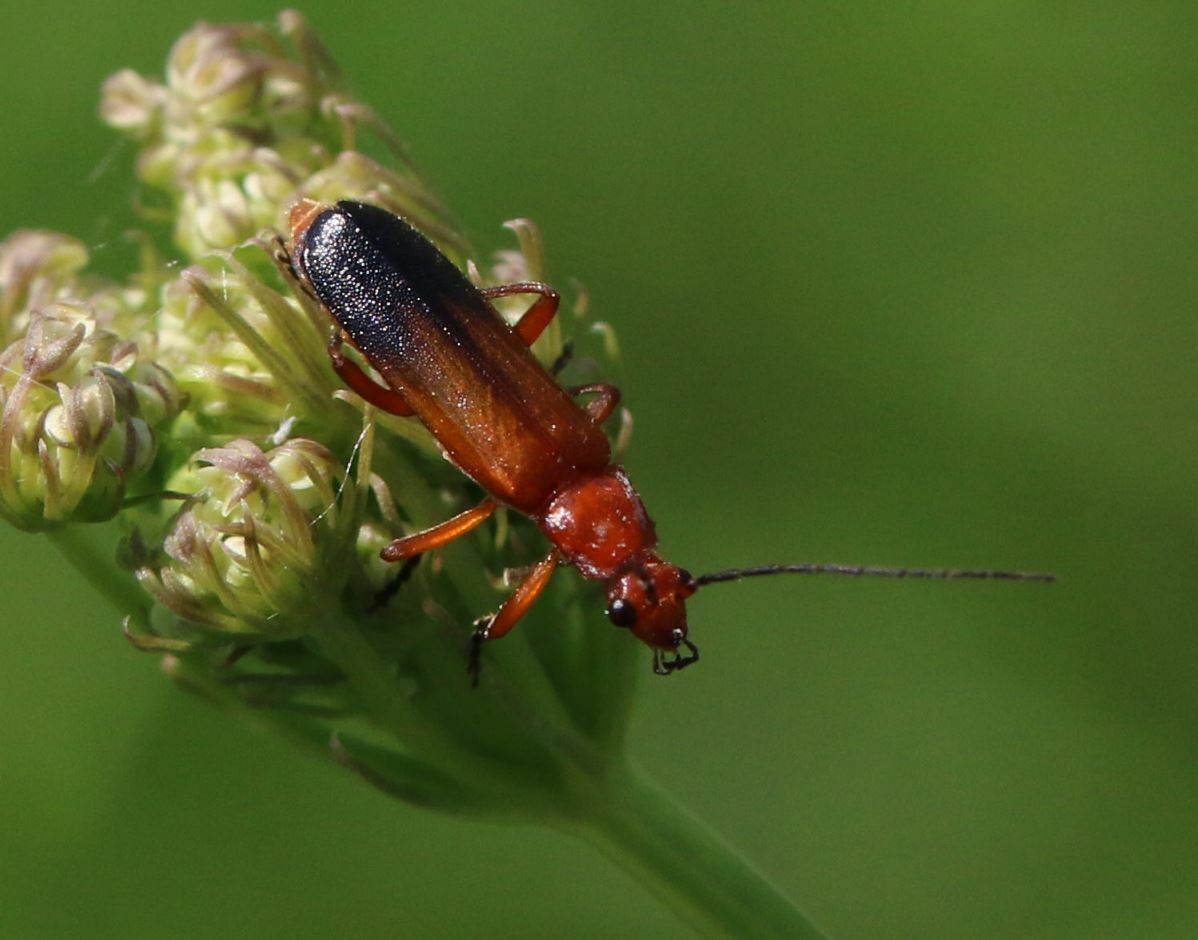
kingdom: Animalia
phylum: Arthropoda
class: Insecta
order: Coleoptera
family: Cantharidae
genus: Rhagonycha
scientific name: Rhagonycha fulva
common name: Common red soldier beetle
